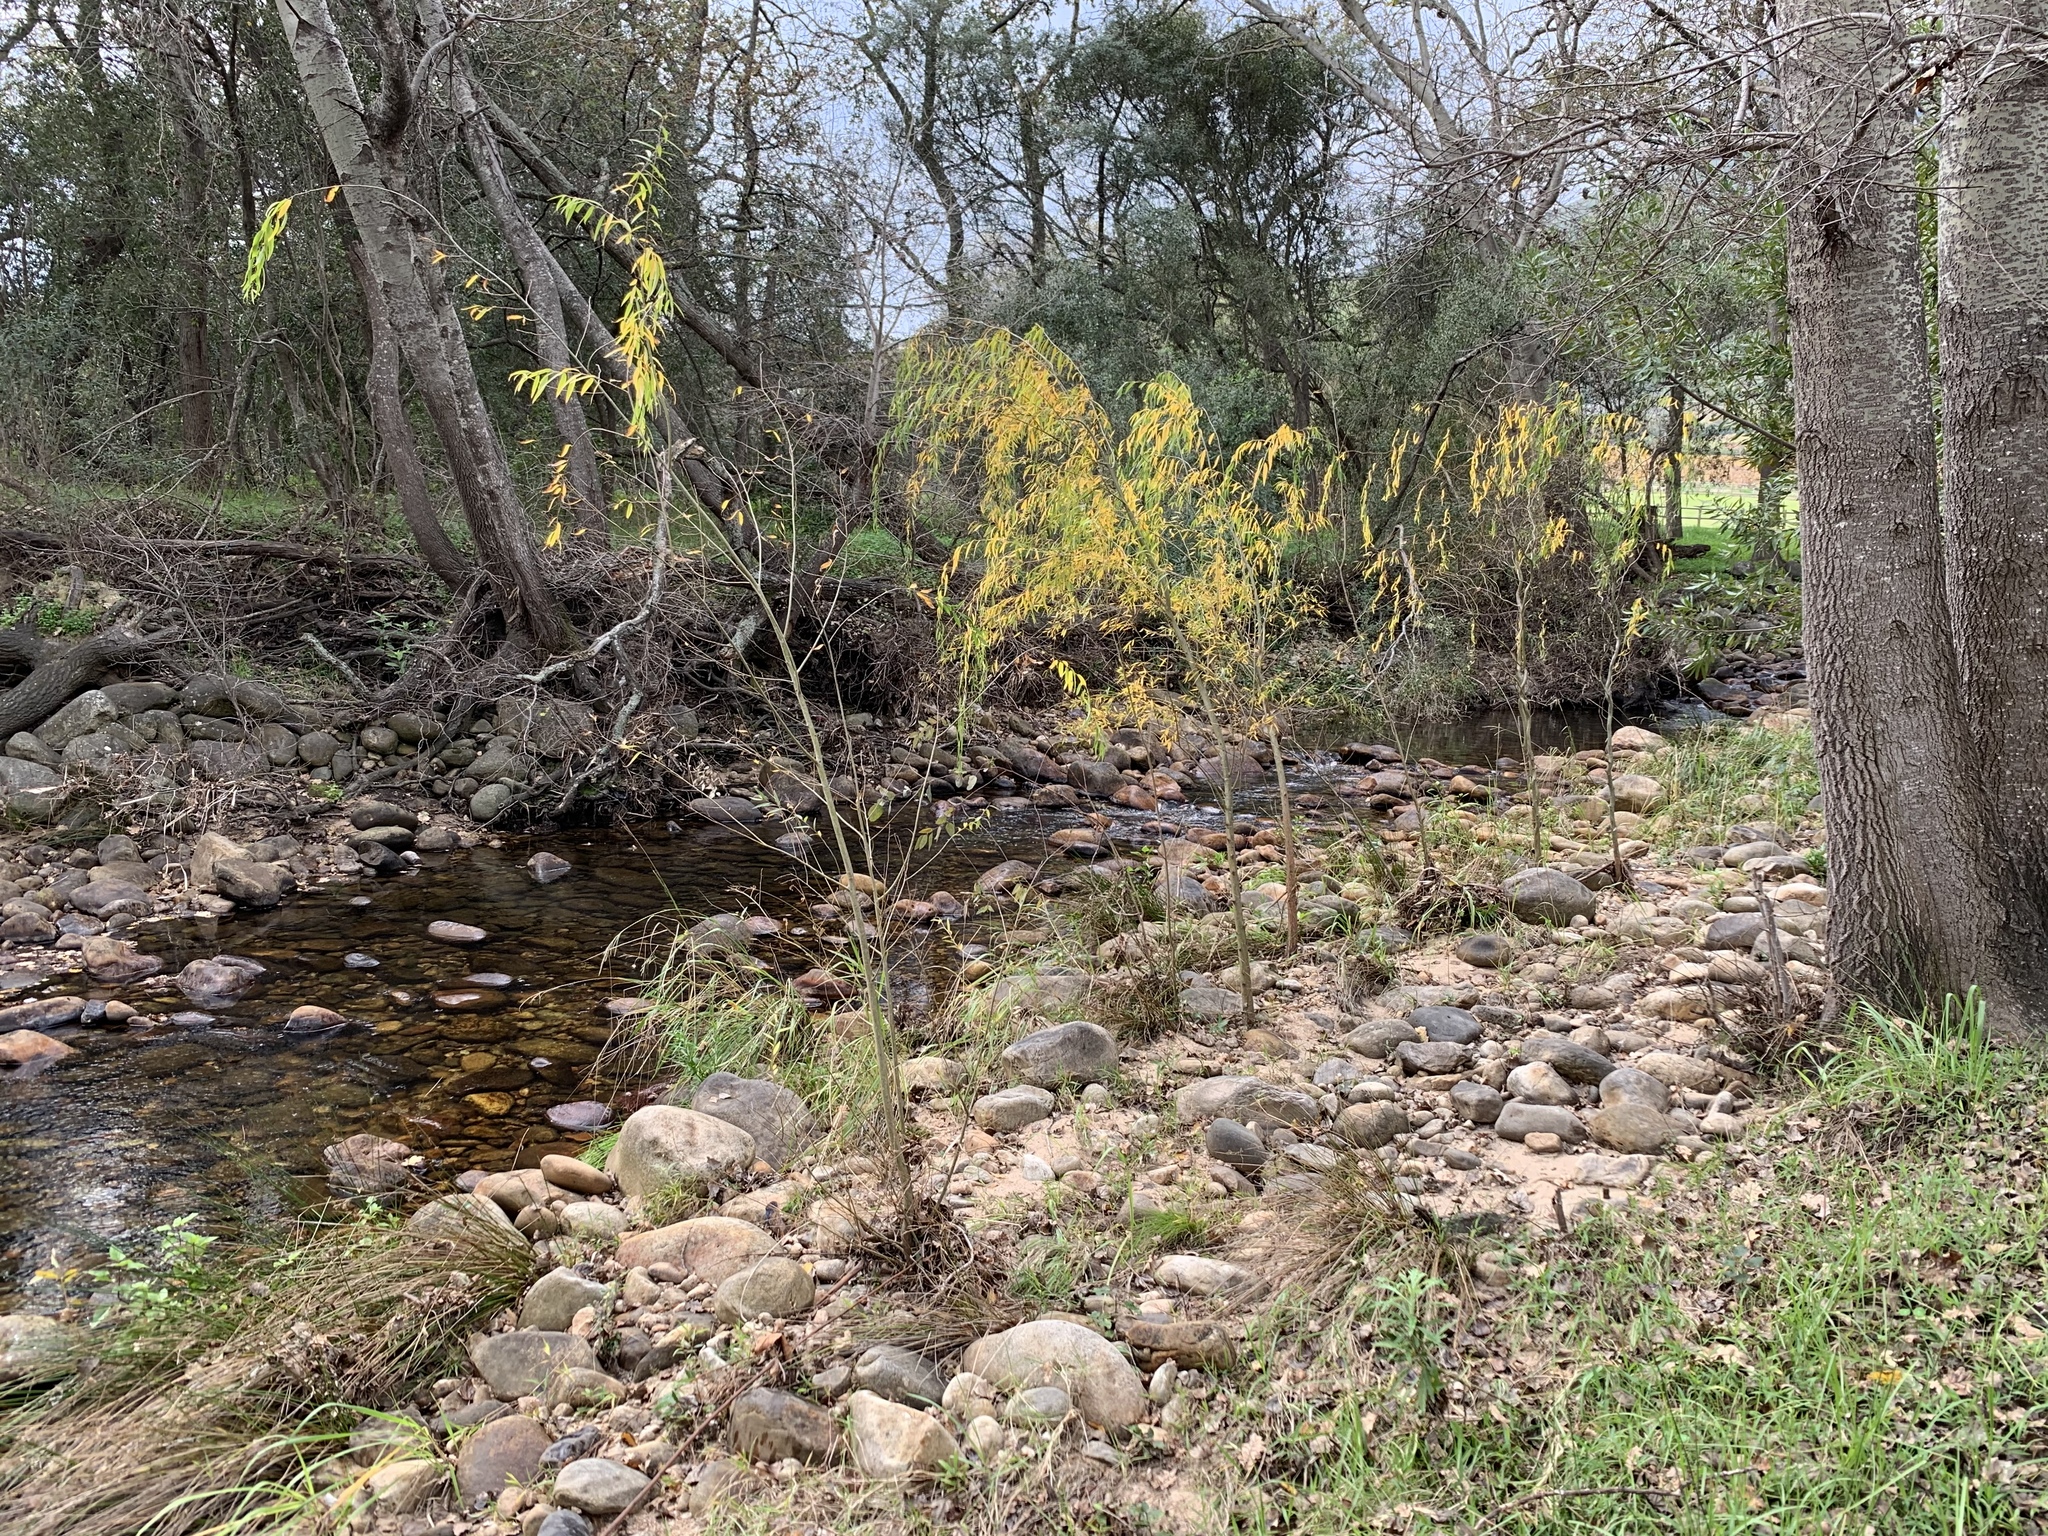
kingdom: Plantae
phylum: Tracheophyta
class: Magnoliopsida
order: Malpighiales
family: Salicaceae
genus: Salix
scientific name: Salix babylonica
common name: Weeping willow
